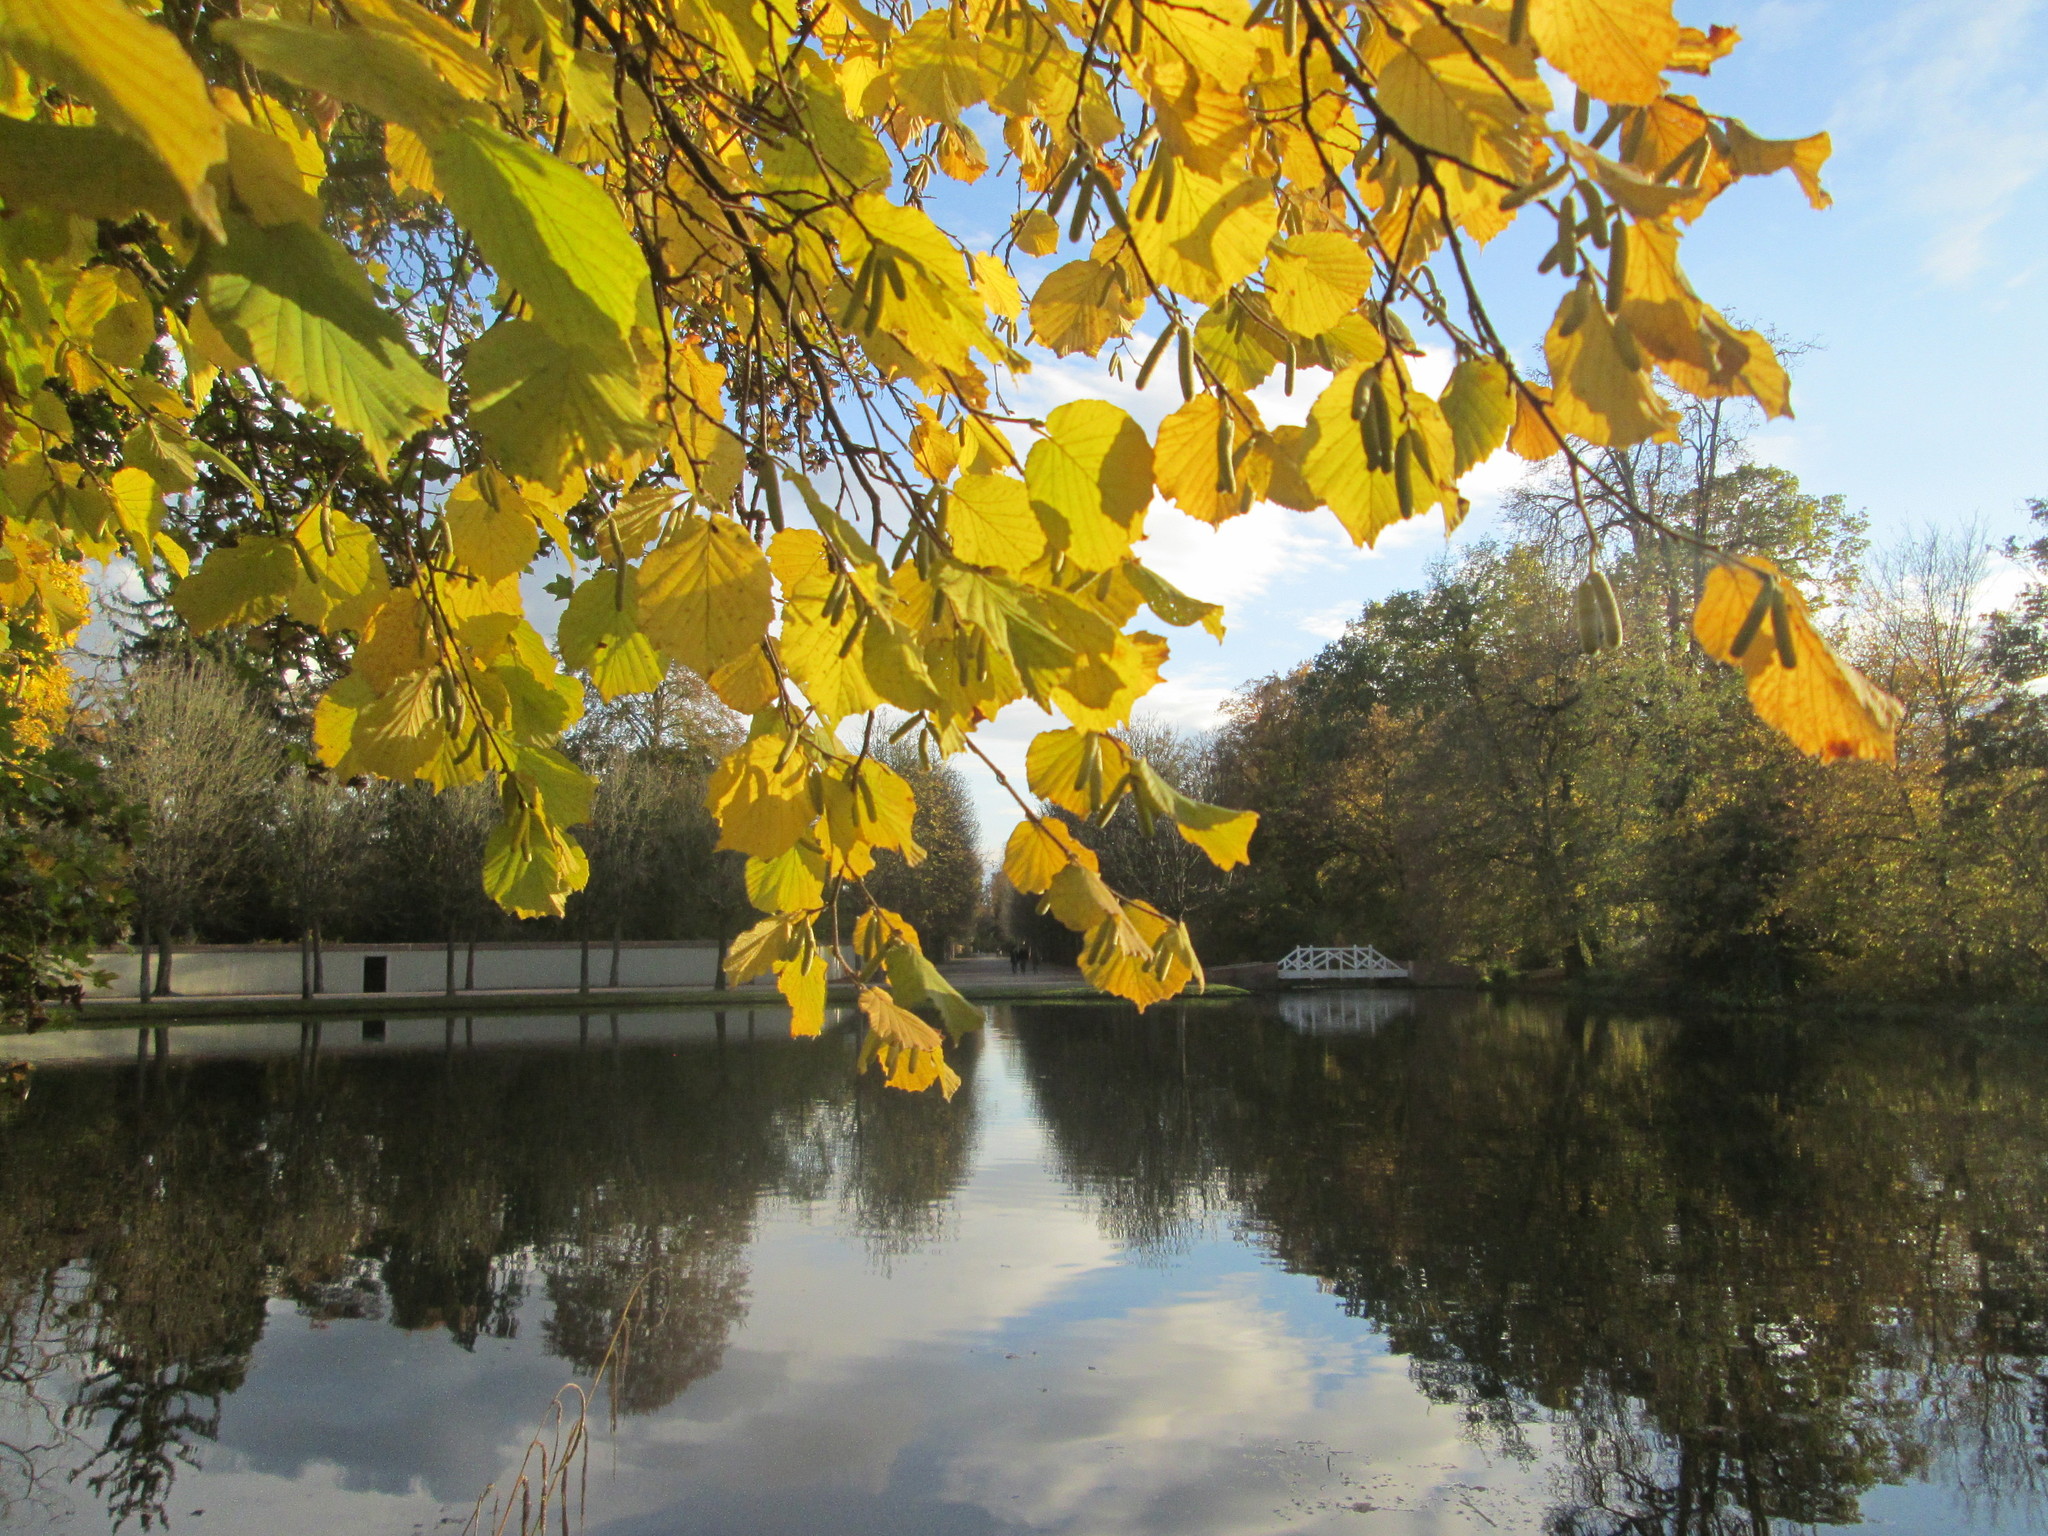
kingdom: Plantae
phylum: Tracheophyta
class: Magnoliopsida
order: Fagales
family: Betulaceae
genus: Corylus
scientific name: Corylus avellana
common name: European hazel
